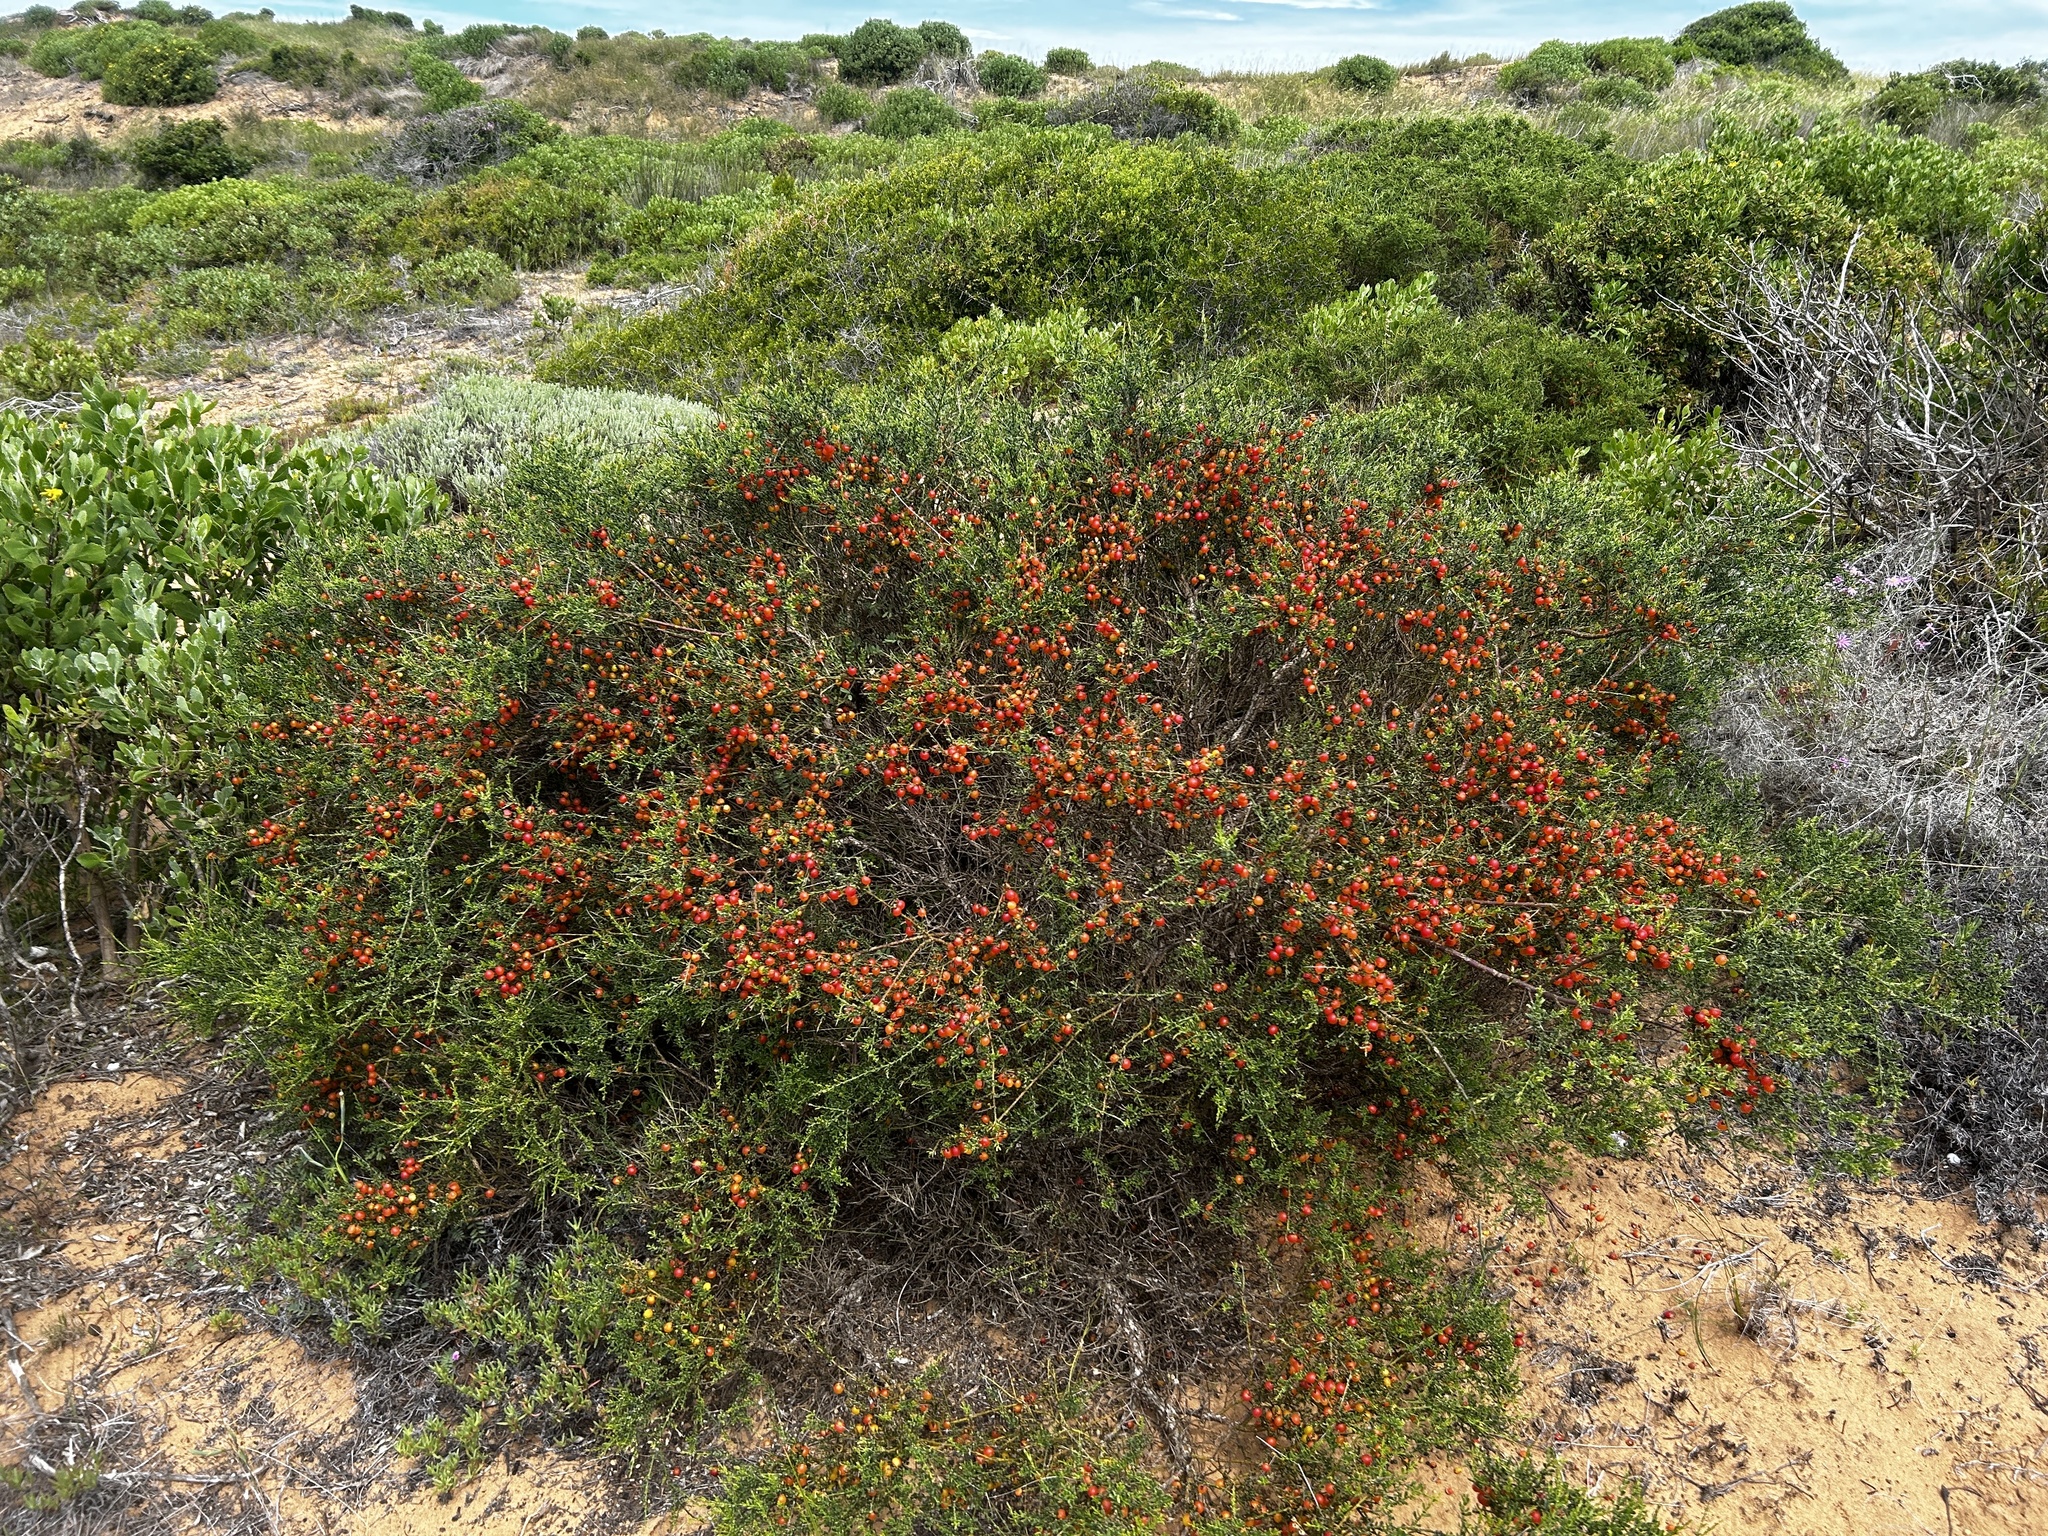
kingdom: Plantae
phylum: Tracheophyta
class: Magnoliopsida
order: Fabales
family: Polygalaceae
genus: Muraltia
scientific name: Muraltia spinosa
